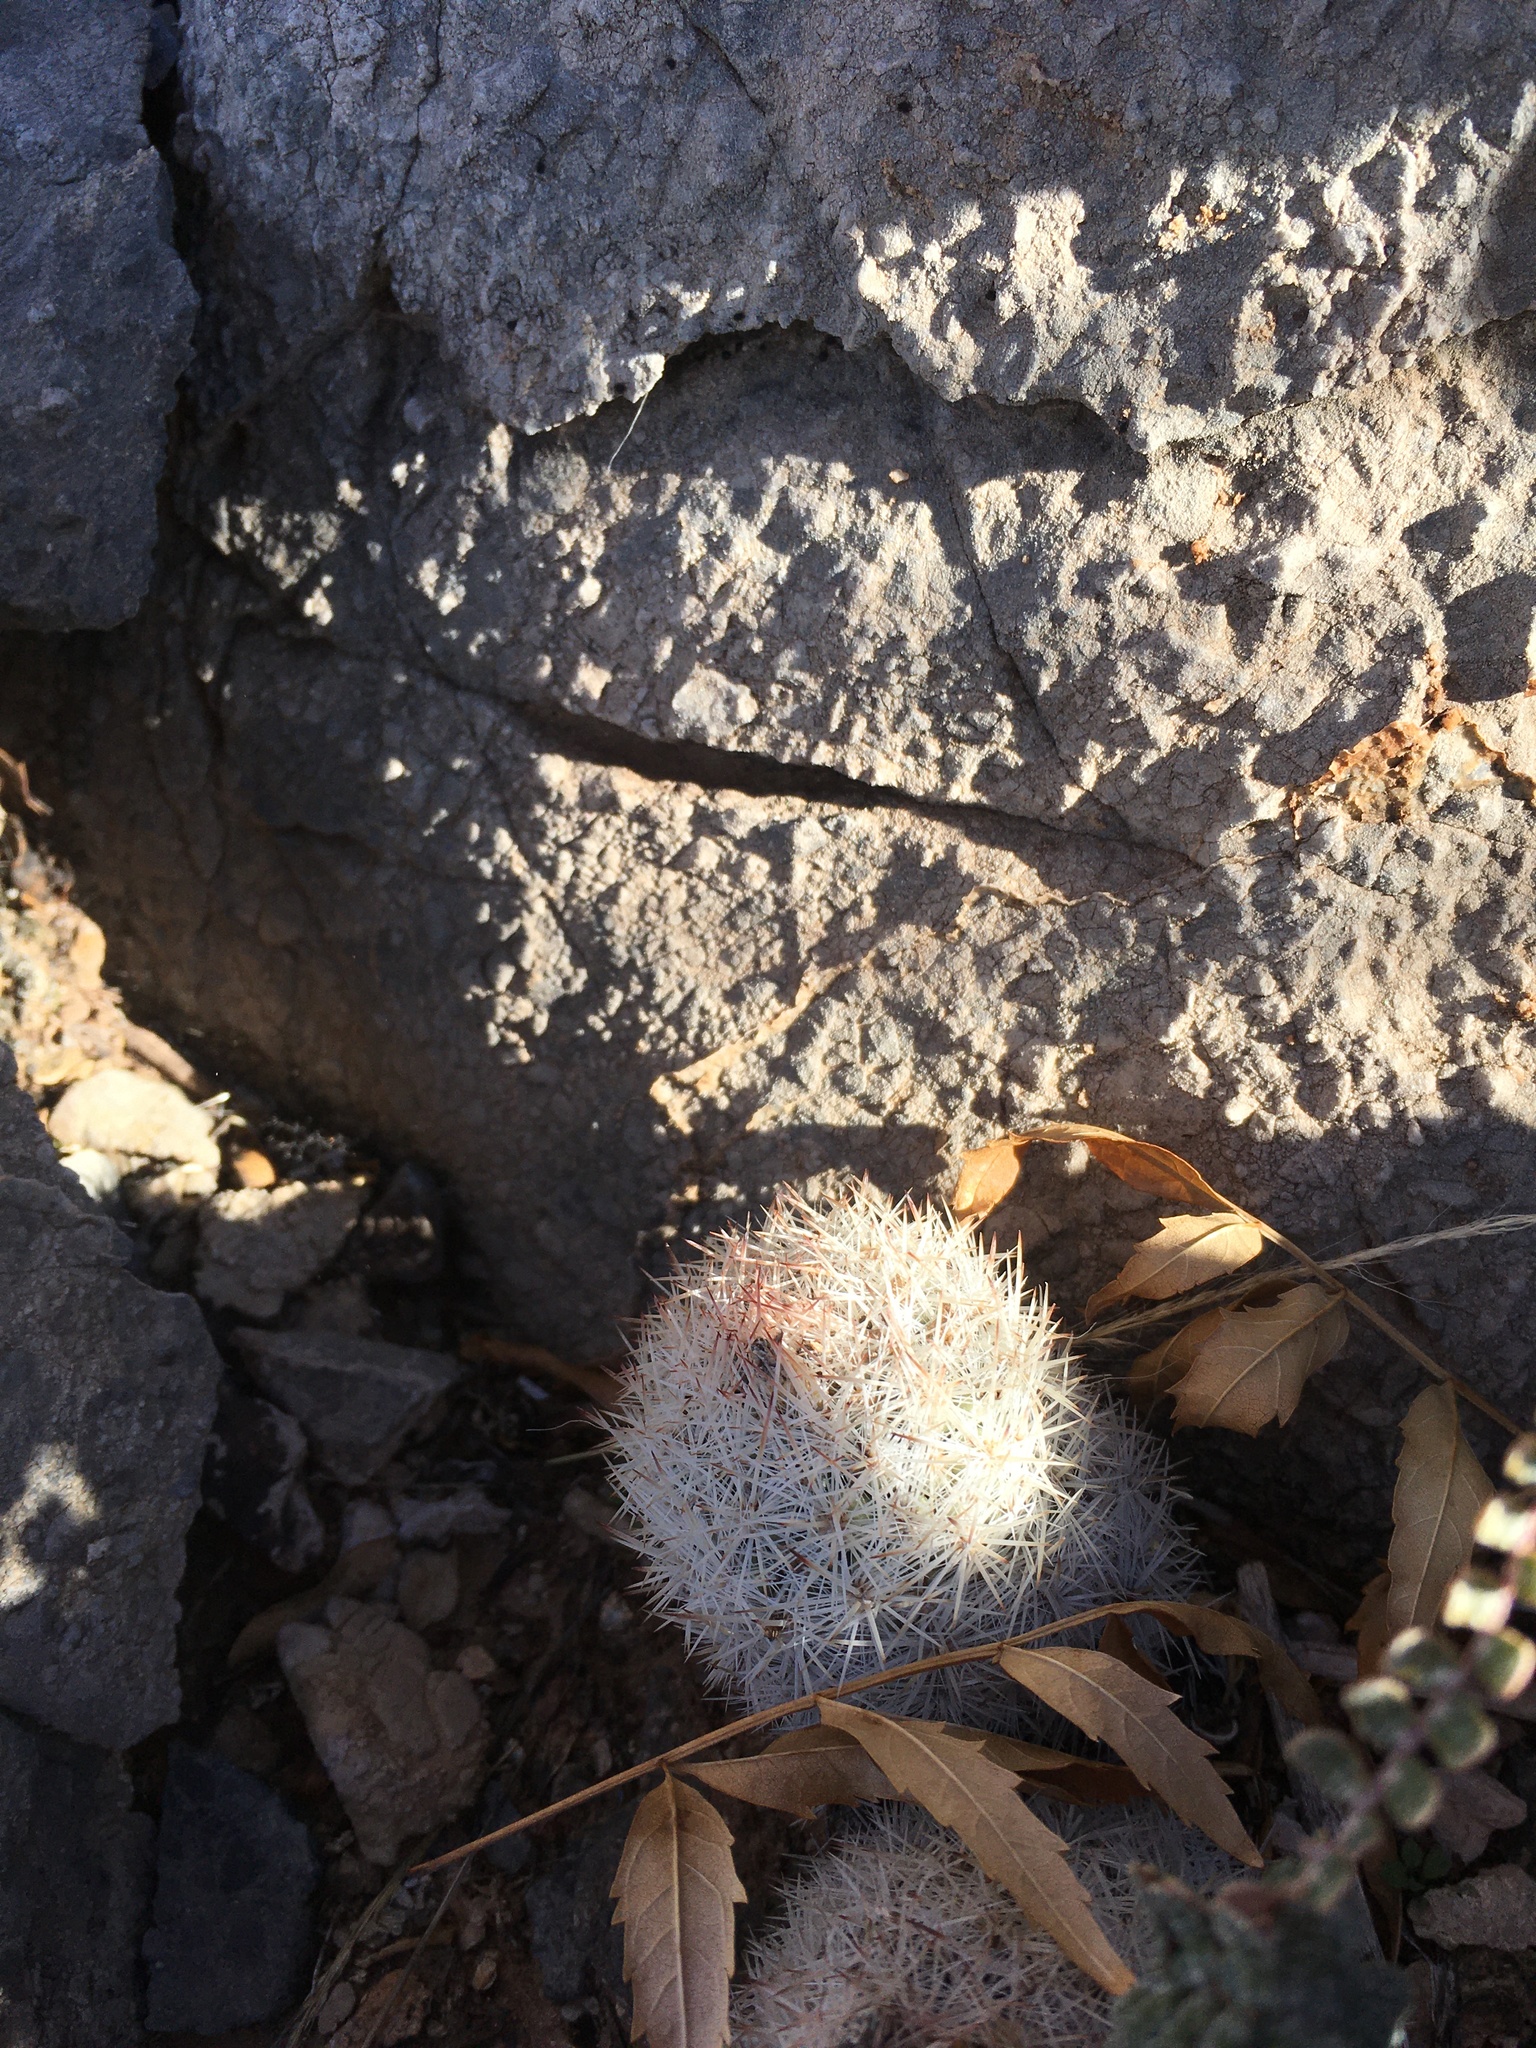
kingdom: Plantae
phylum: Tracheophyta
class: Magnoliopsida
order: Caryophyllales
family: Cactaceae
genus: Pelecyphora
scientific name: Pelecyphora sneedii
